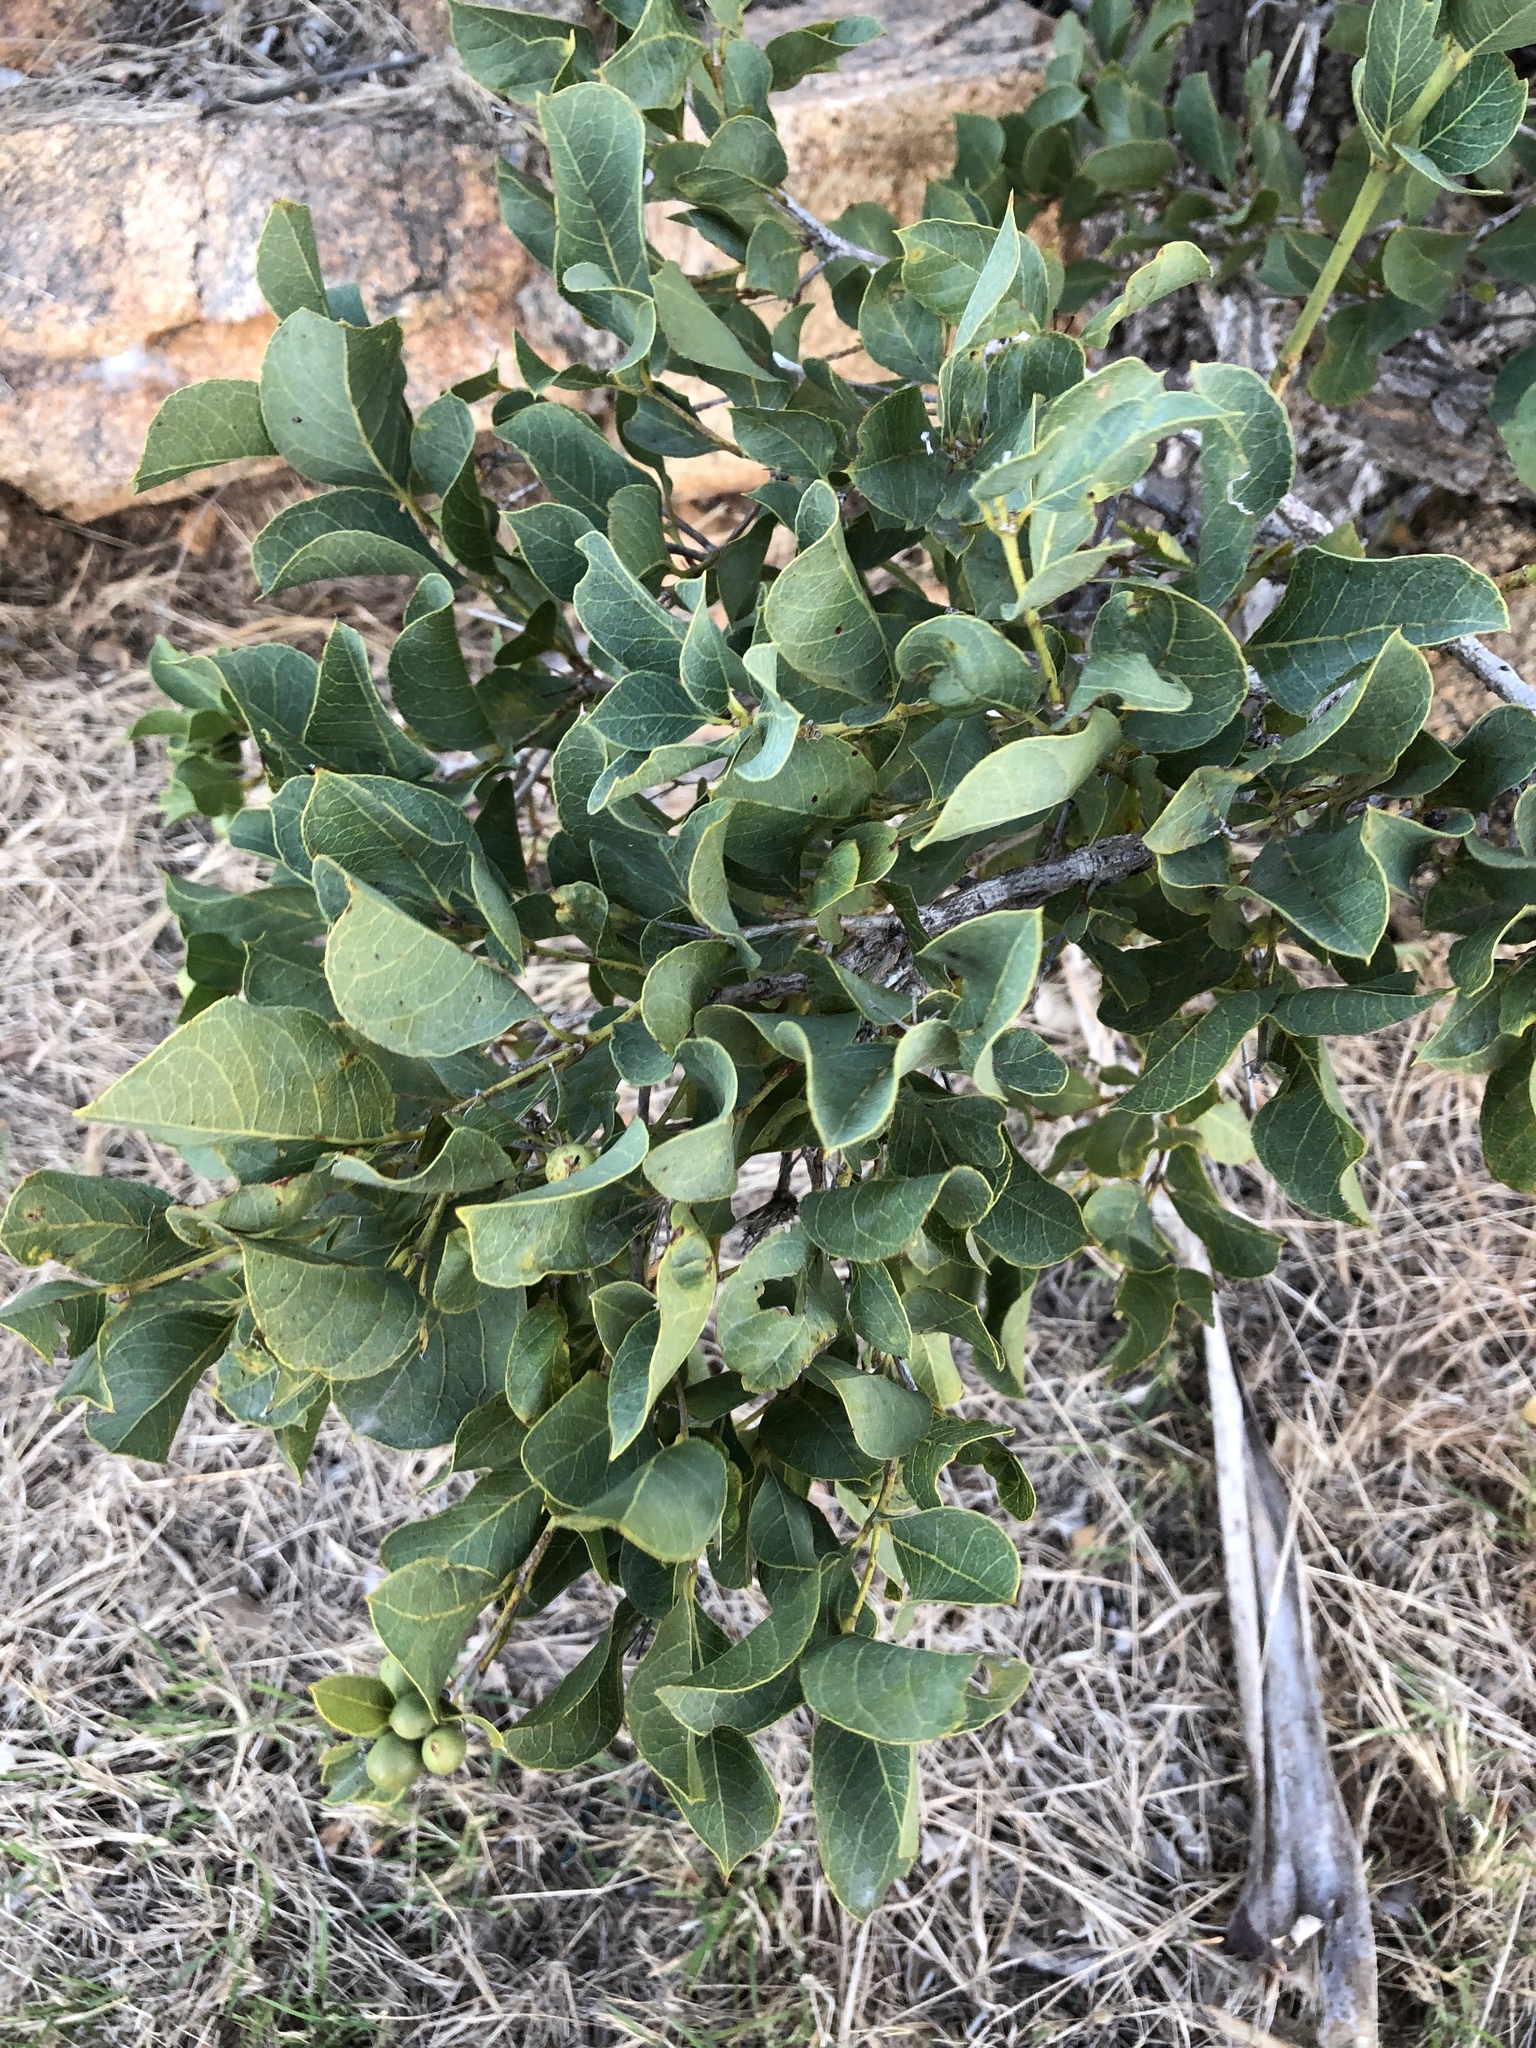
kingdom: Plantae
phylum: Tracheophyta
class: Magnoliopsida
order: Gentianales
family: Rubiaceae
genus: Coelospermum
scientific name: Coelospermum reticulatum
